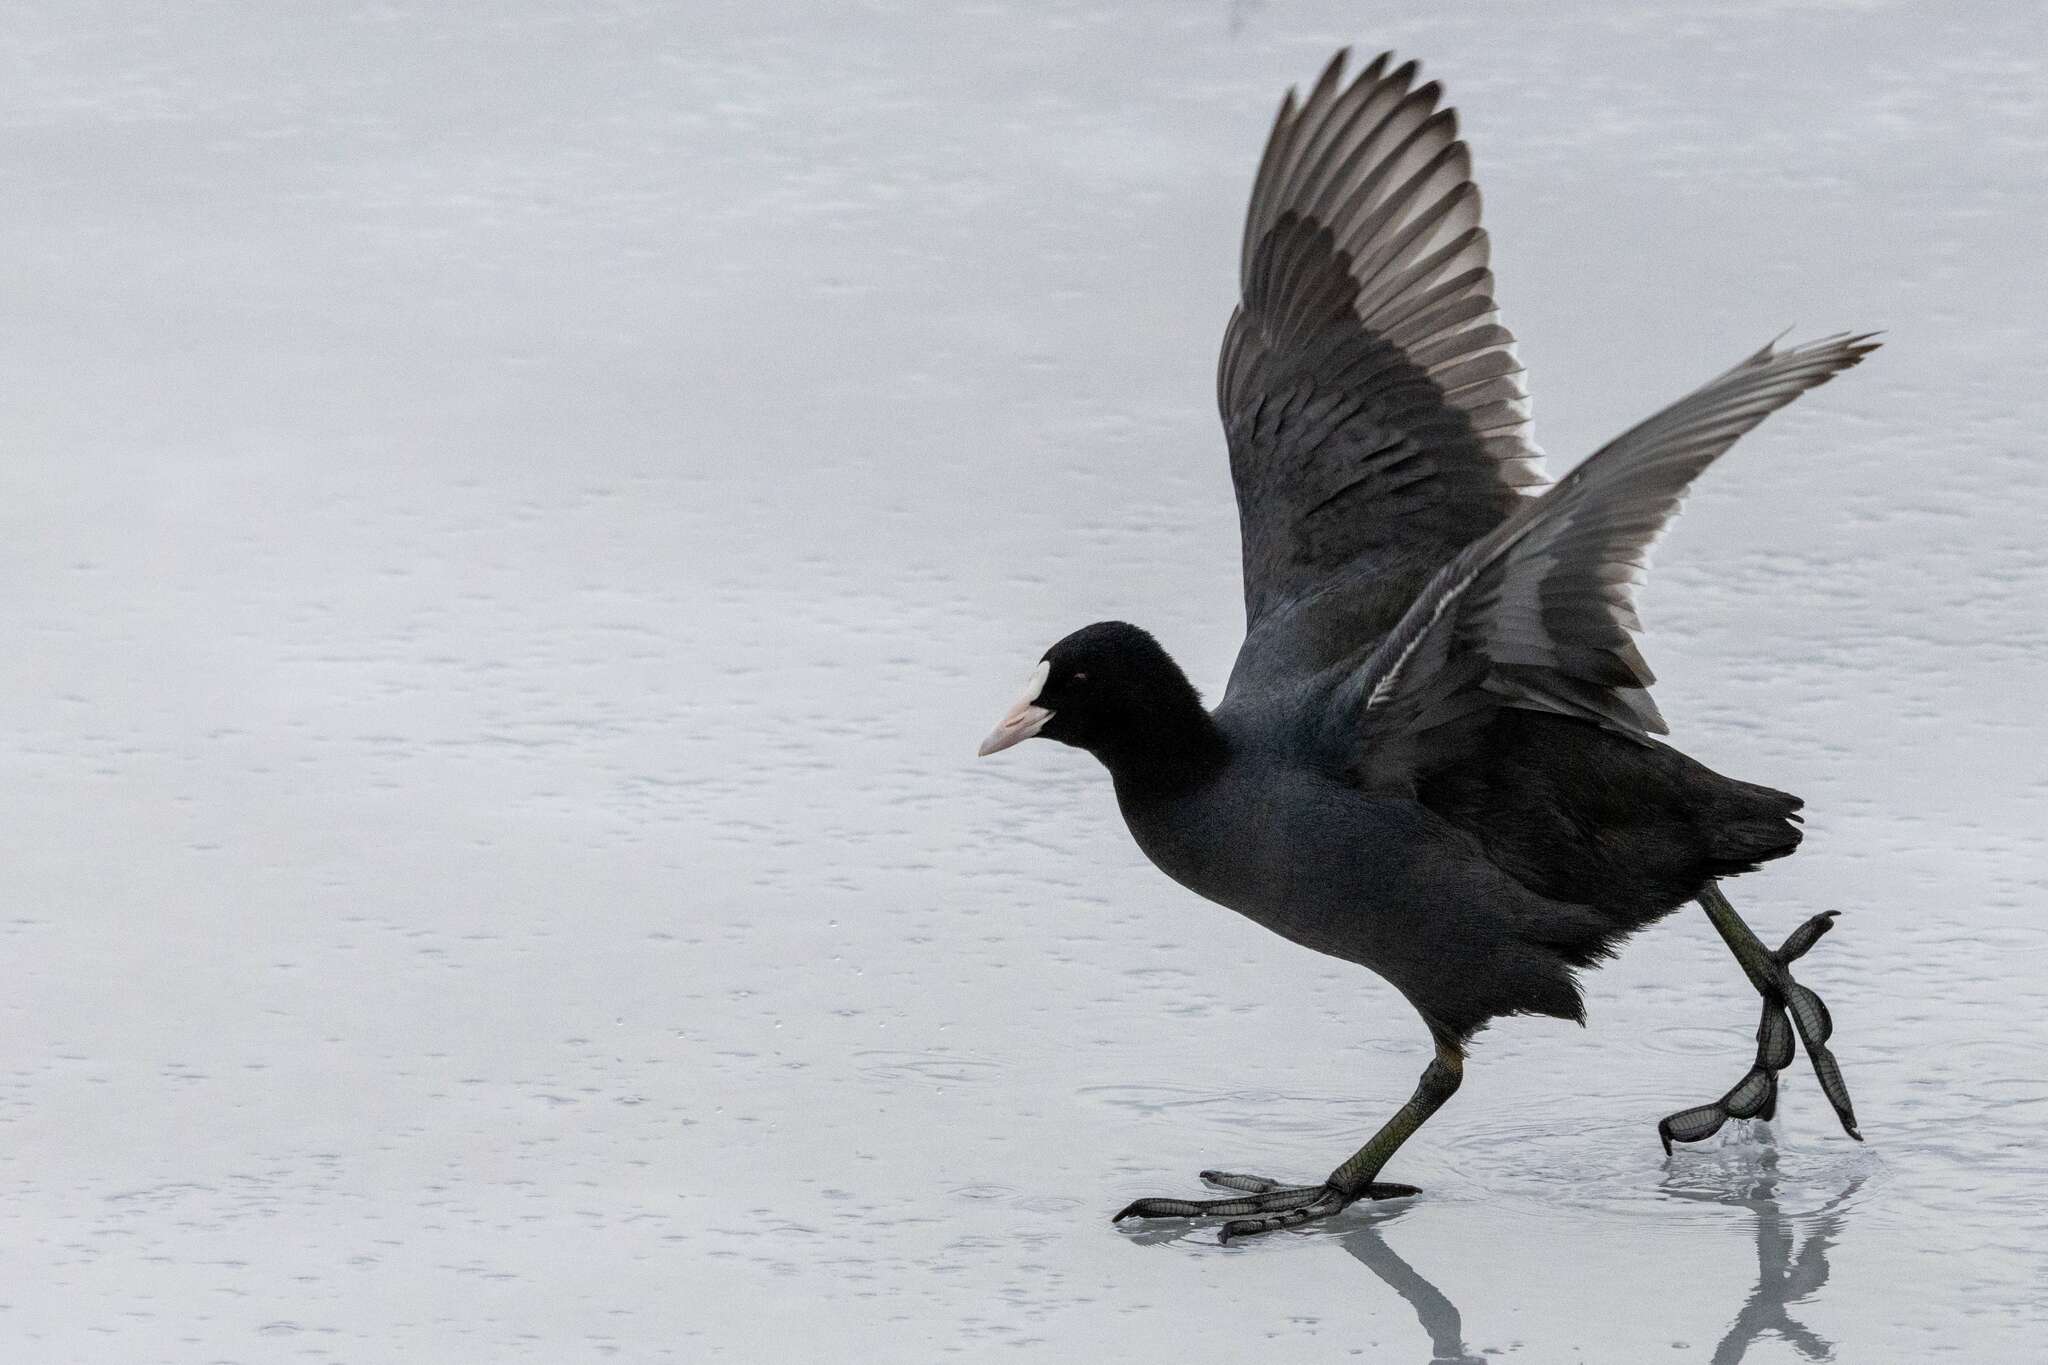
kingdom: Animalia
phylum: Chordata
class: Aves
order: Gruiformes
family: Rallidae
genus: Fulica
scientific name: Fulica atra
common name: Eurasian coot
